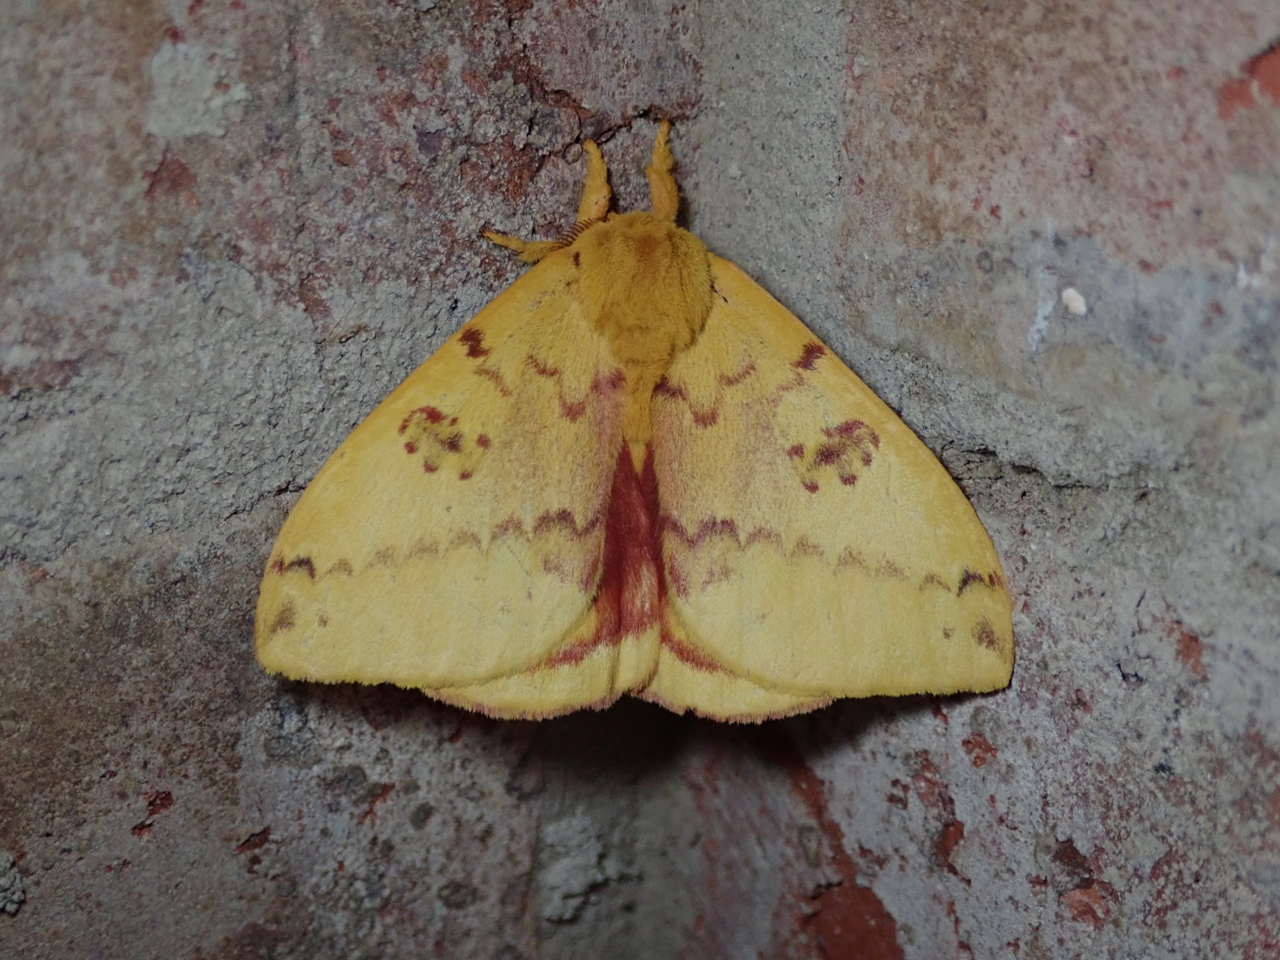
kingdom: Animalia
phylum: Arthropoda
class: Insecta
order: Lepidoptera
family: Saturniidae
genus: Automeris
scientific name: Automeris io
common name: Io moth
